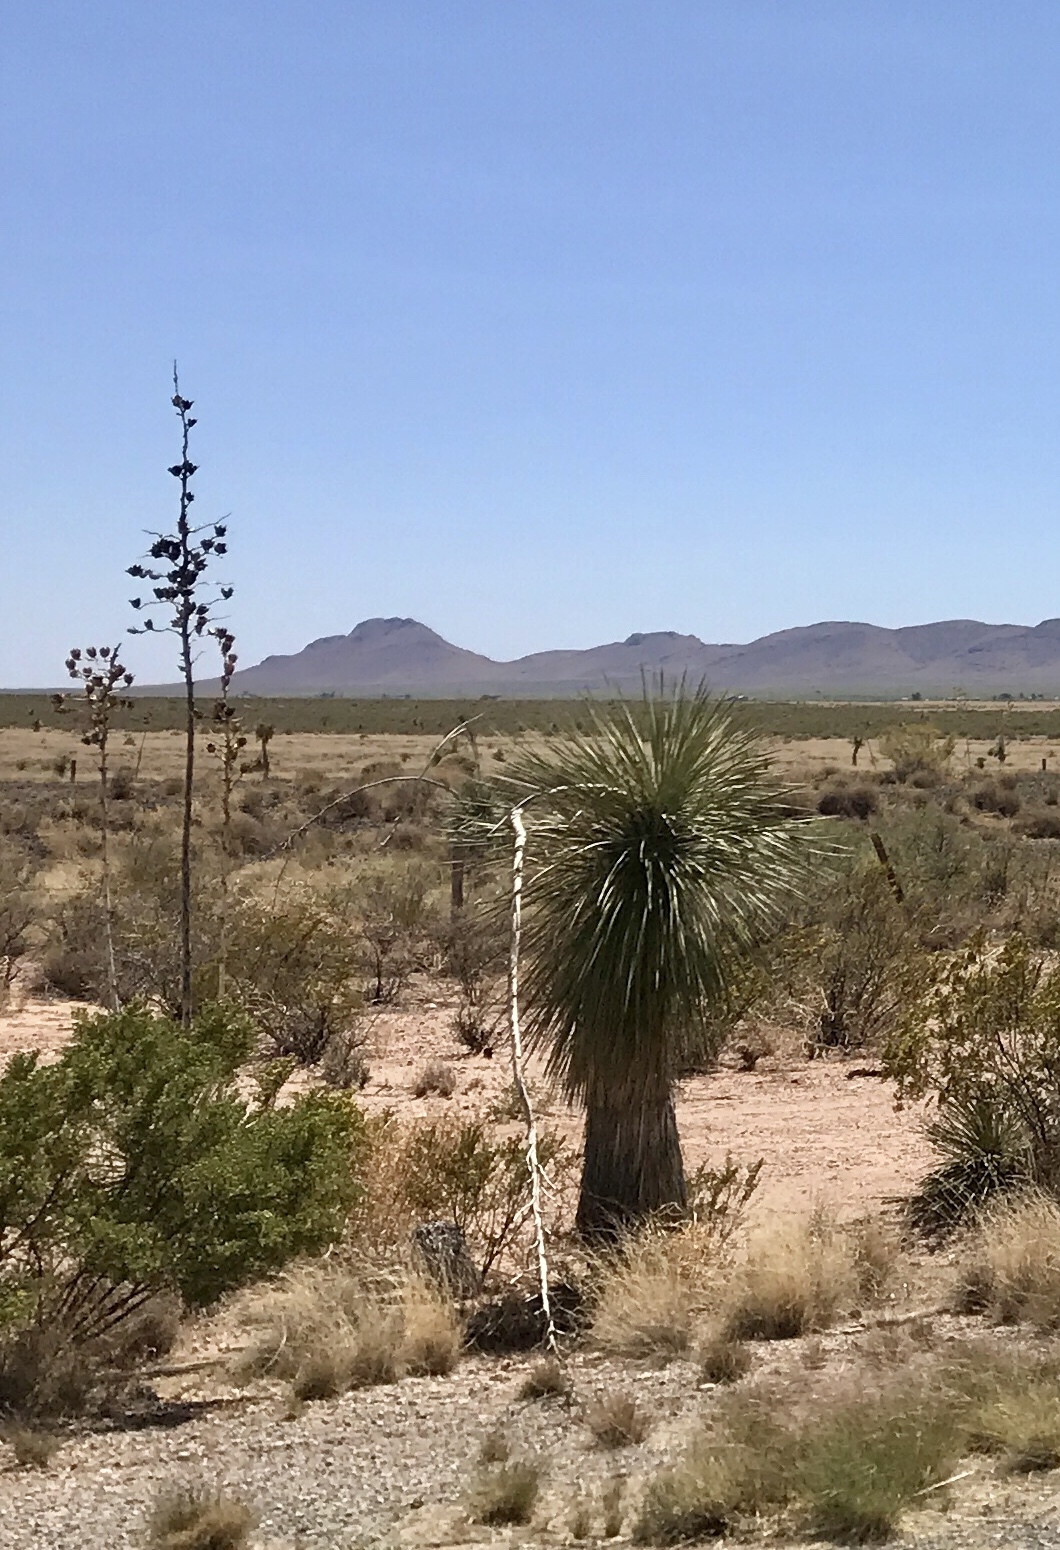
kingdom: Plantae
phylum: Tracheophyta
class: Liliopsida
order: Asparagales
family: Asparagaceae
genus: Yucca
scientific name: Yucca elata
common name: Palmella
